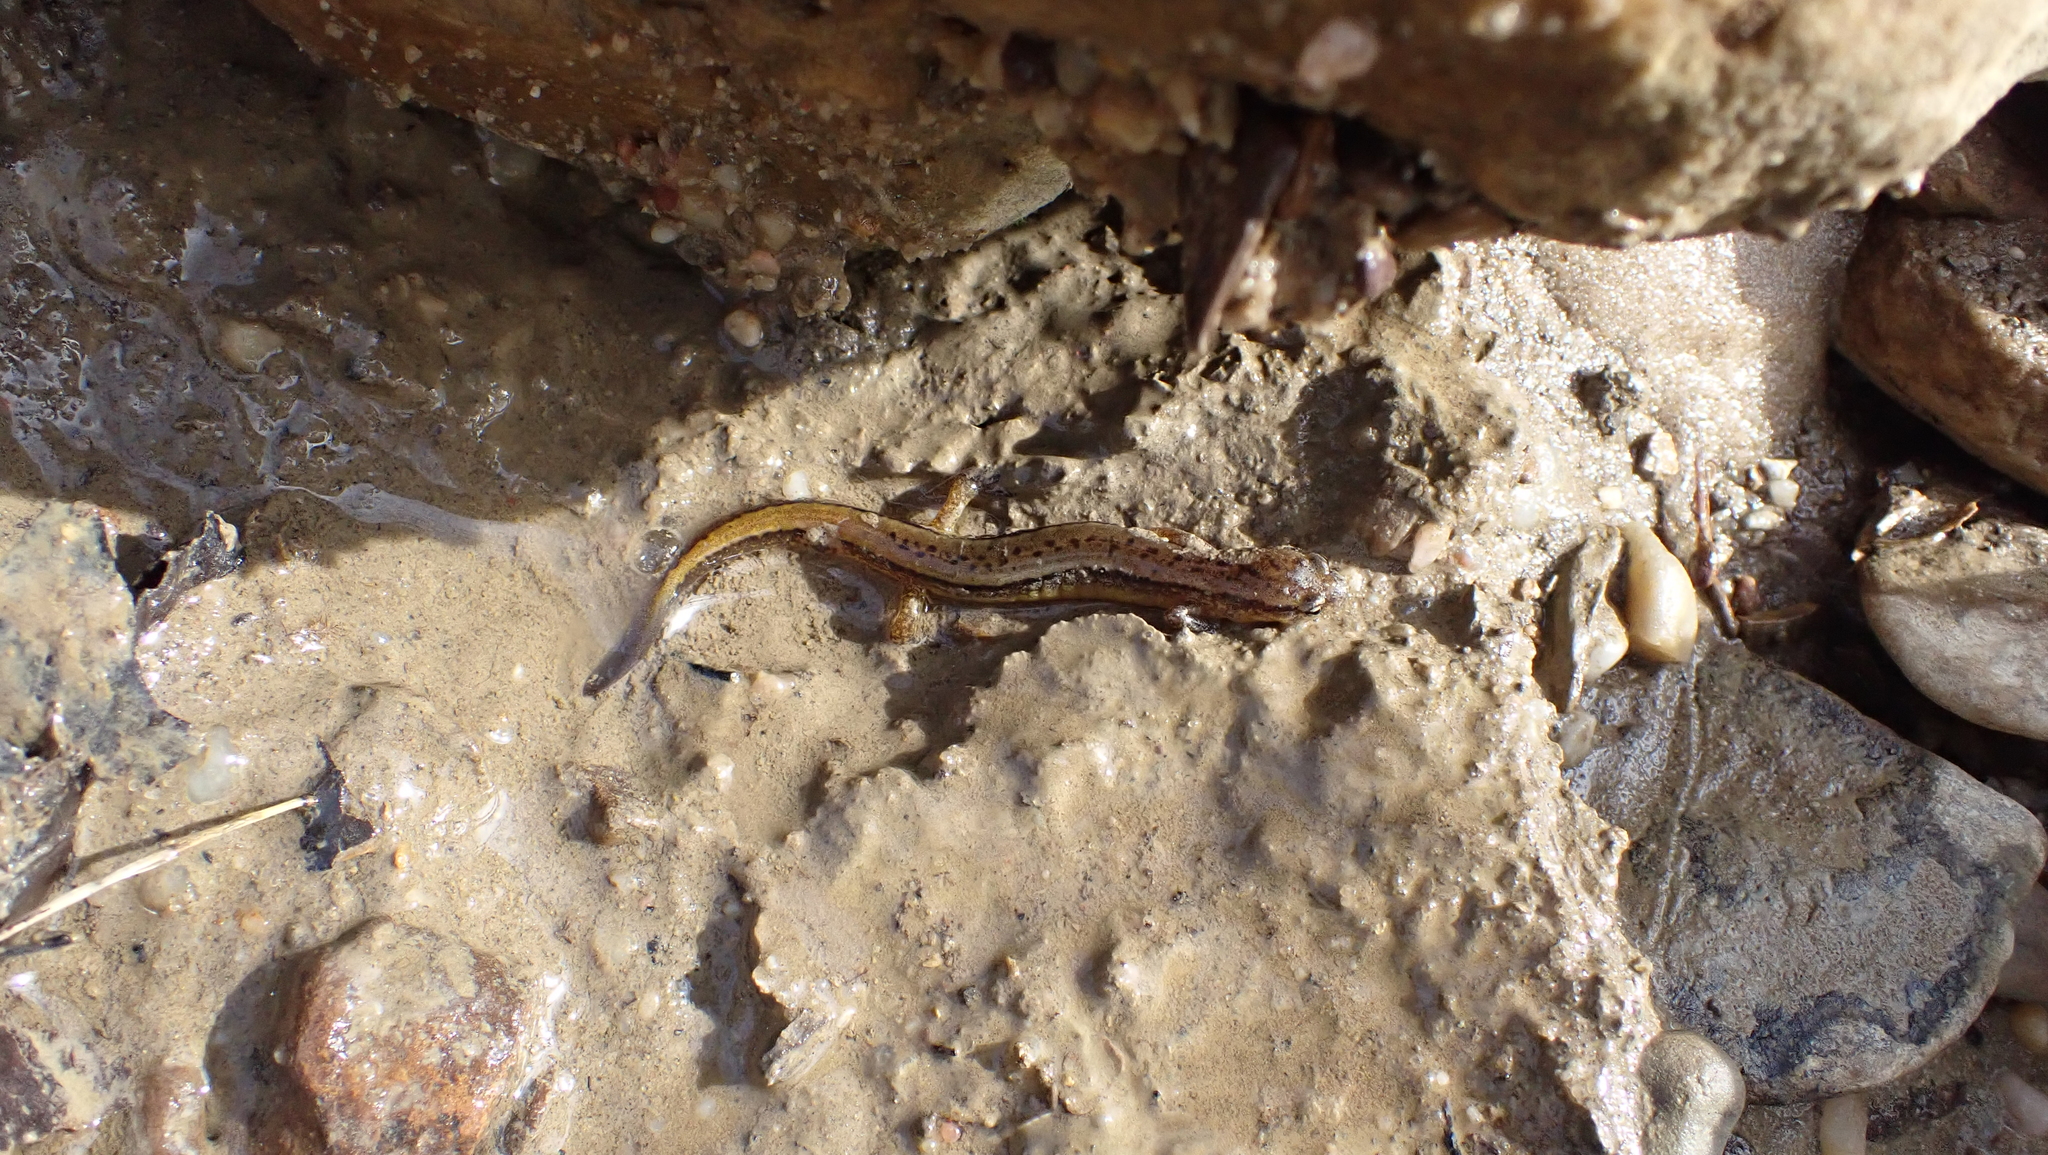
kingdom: Animalia
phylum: Chordata
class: Amphibia
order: Caudata
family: Plethodontidae
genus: Eurycea
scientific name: Eurycea cirrigera
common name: Southern two-lined salamander
